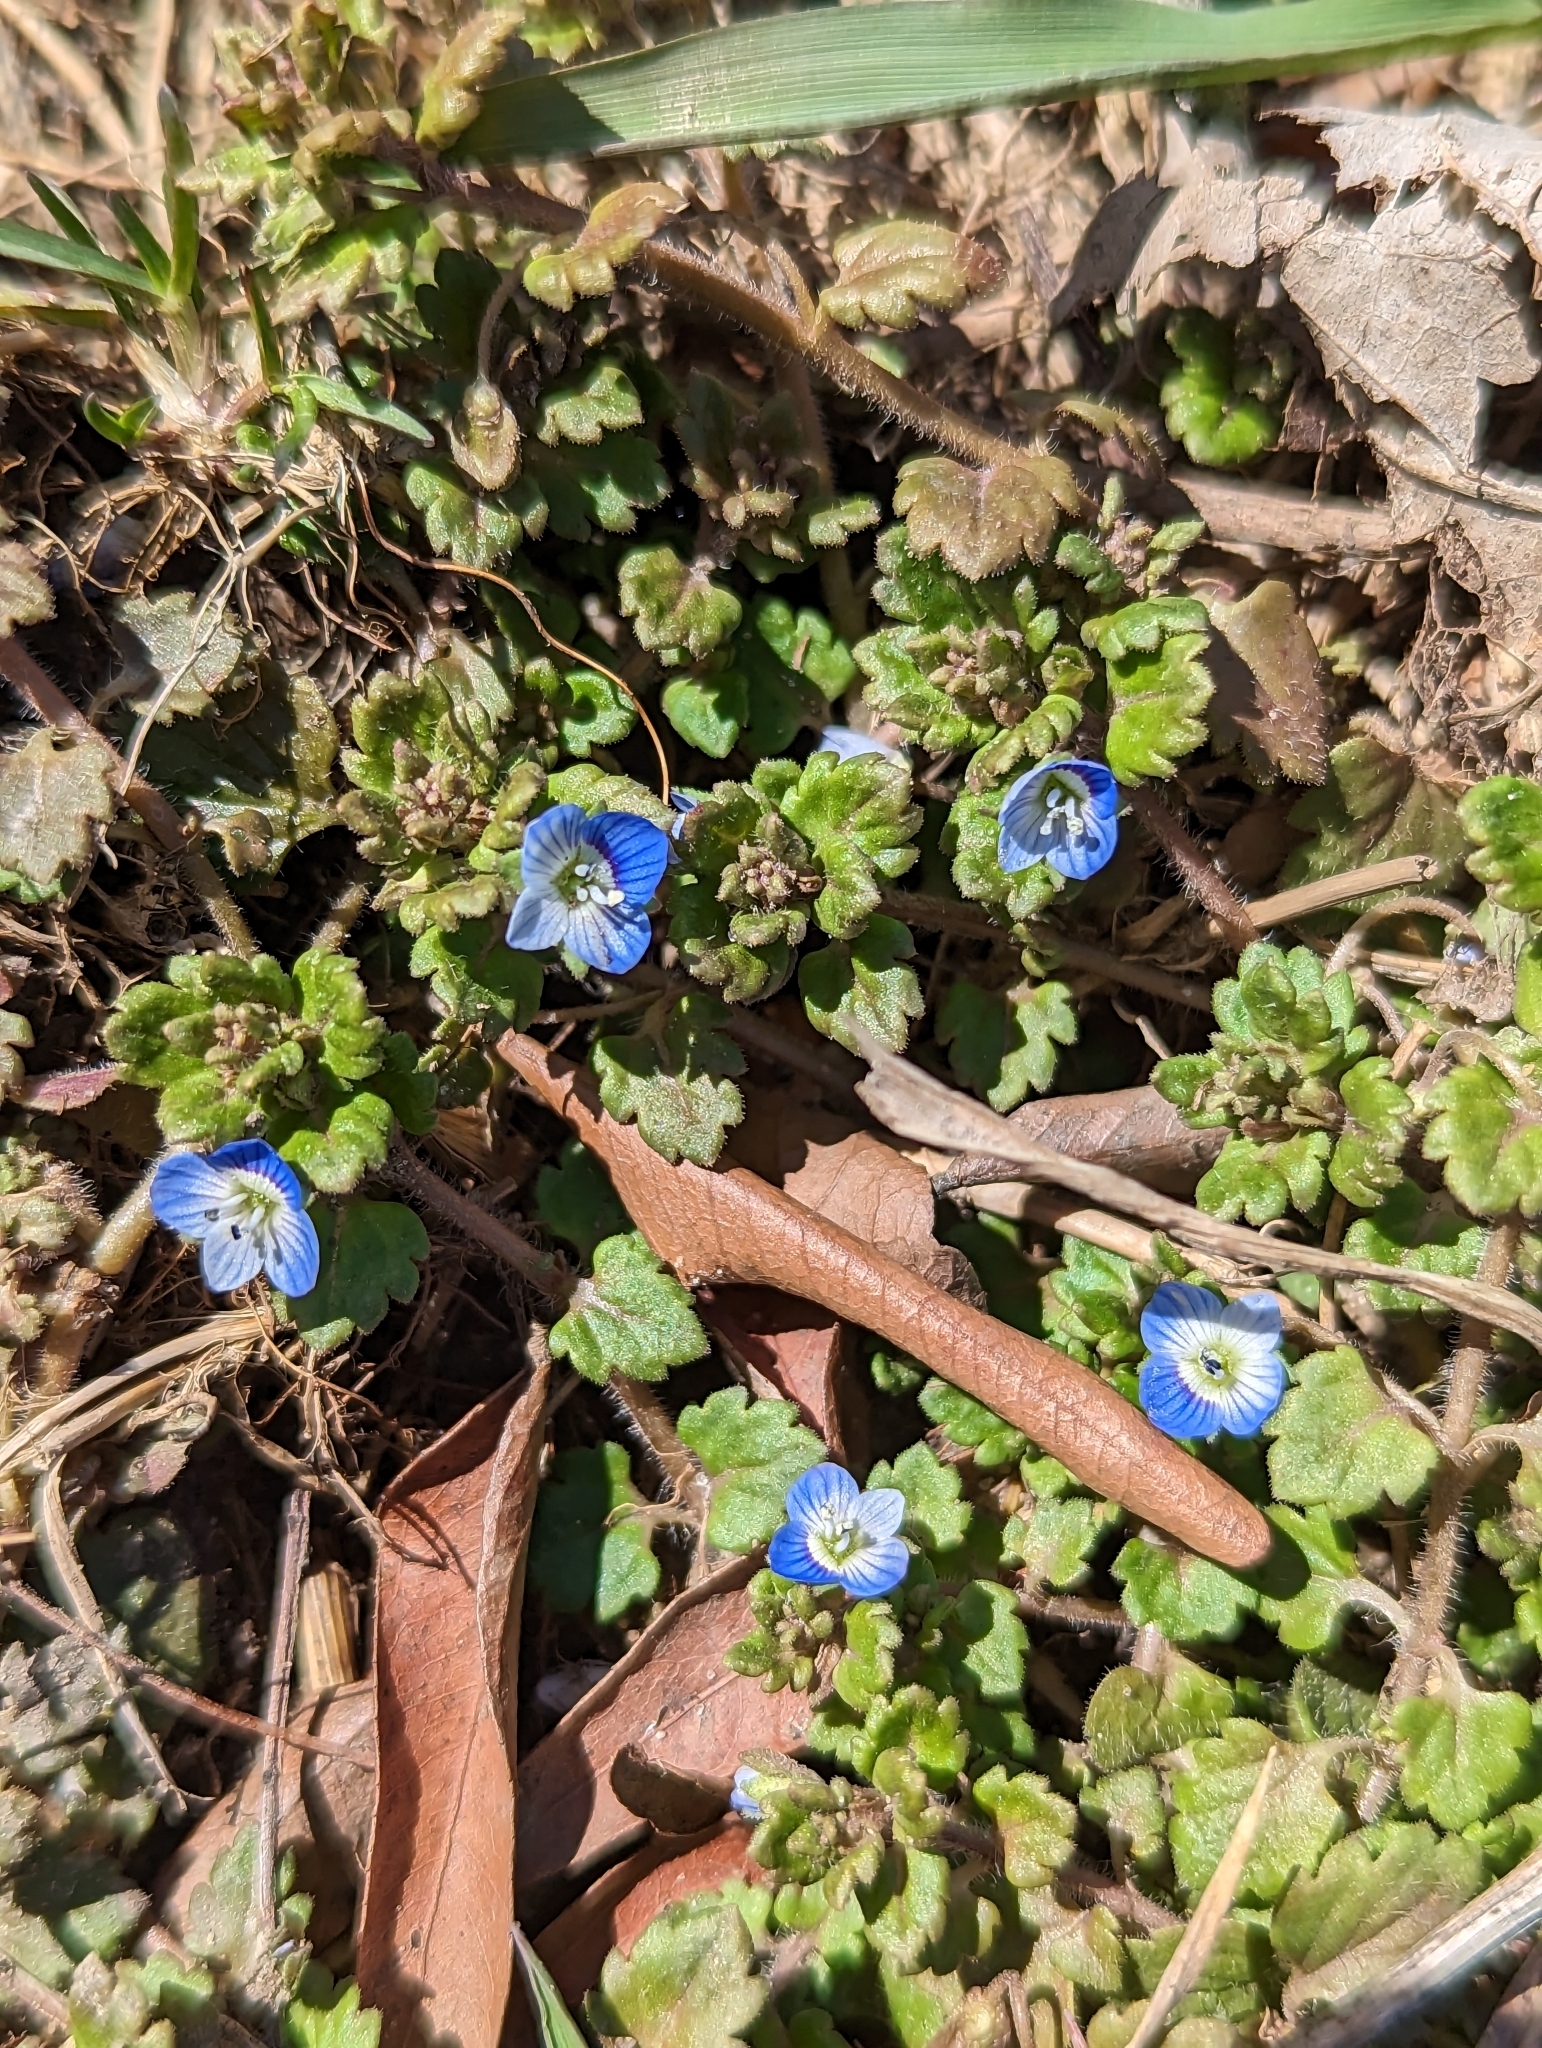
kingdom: Plantae
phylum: Tracheophyta
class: Magnoliopsida
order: Lamiales
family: Plantaginaceae
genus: Veronica
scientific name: Veronica polita
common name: Grey field-speedwell
